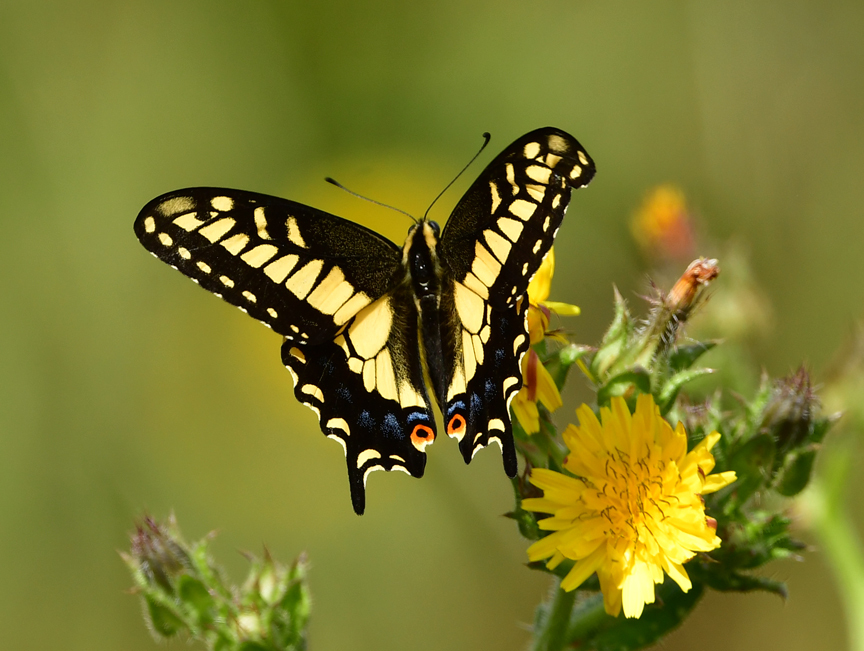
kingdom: Animalia
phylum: Arthropoda
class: Insecta
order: Lepidoptera
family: Papilionidae
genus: Papilio
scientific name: Papilio zelicaon
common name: Anise swallowtail
